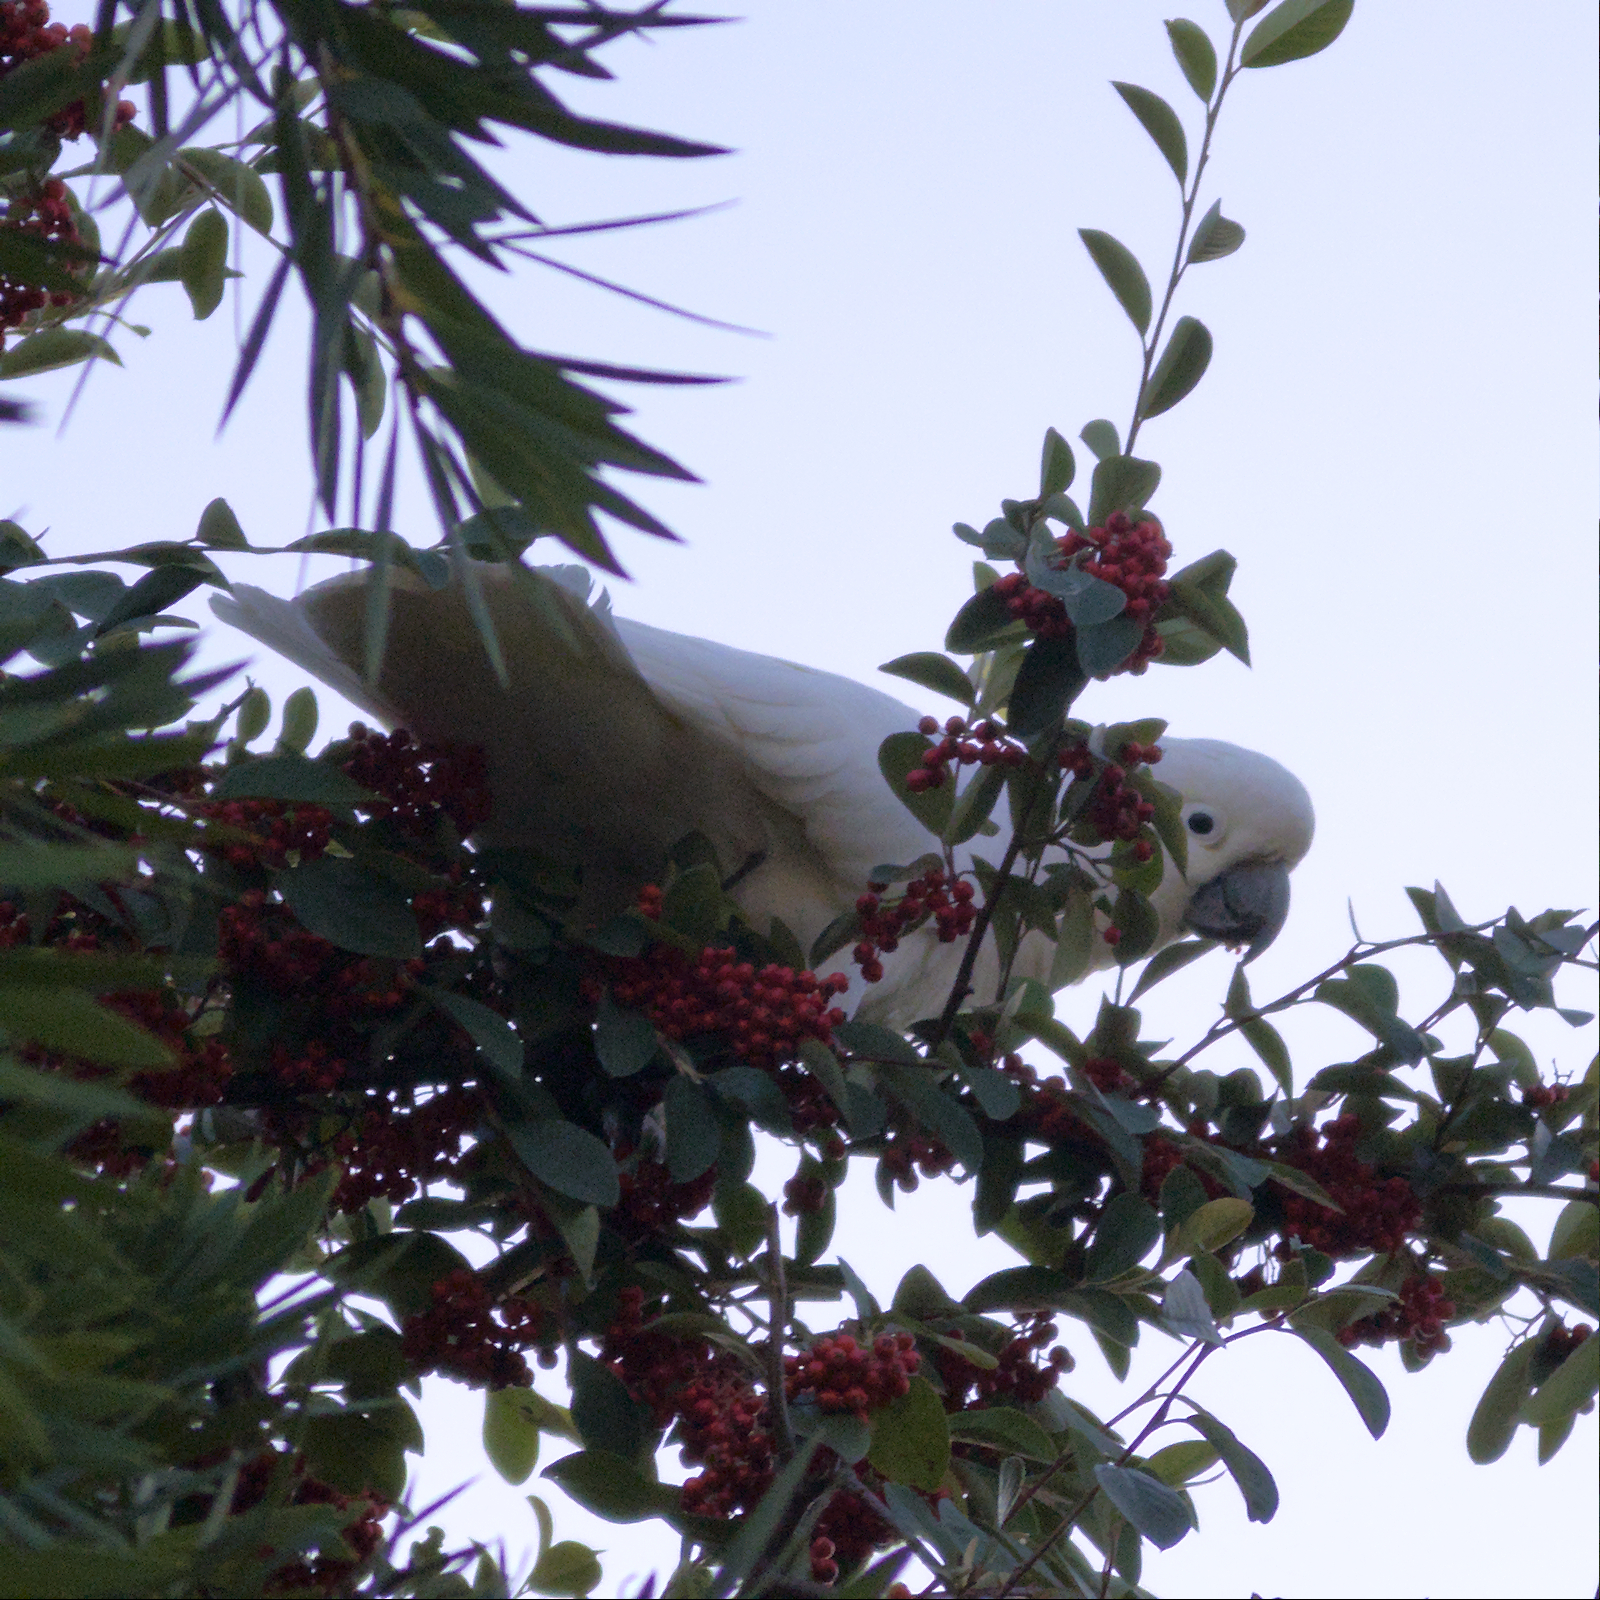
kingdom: Animalia
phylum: Chordata
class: Aves
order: Psittaciformes
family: Psittacidae
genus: Cacatua
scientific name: Cacatua galerita
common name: Sulphur-crested cockatoo
